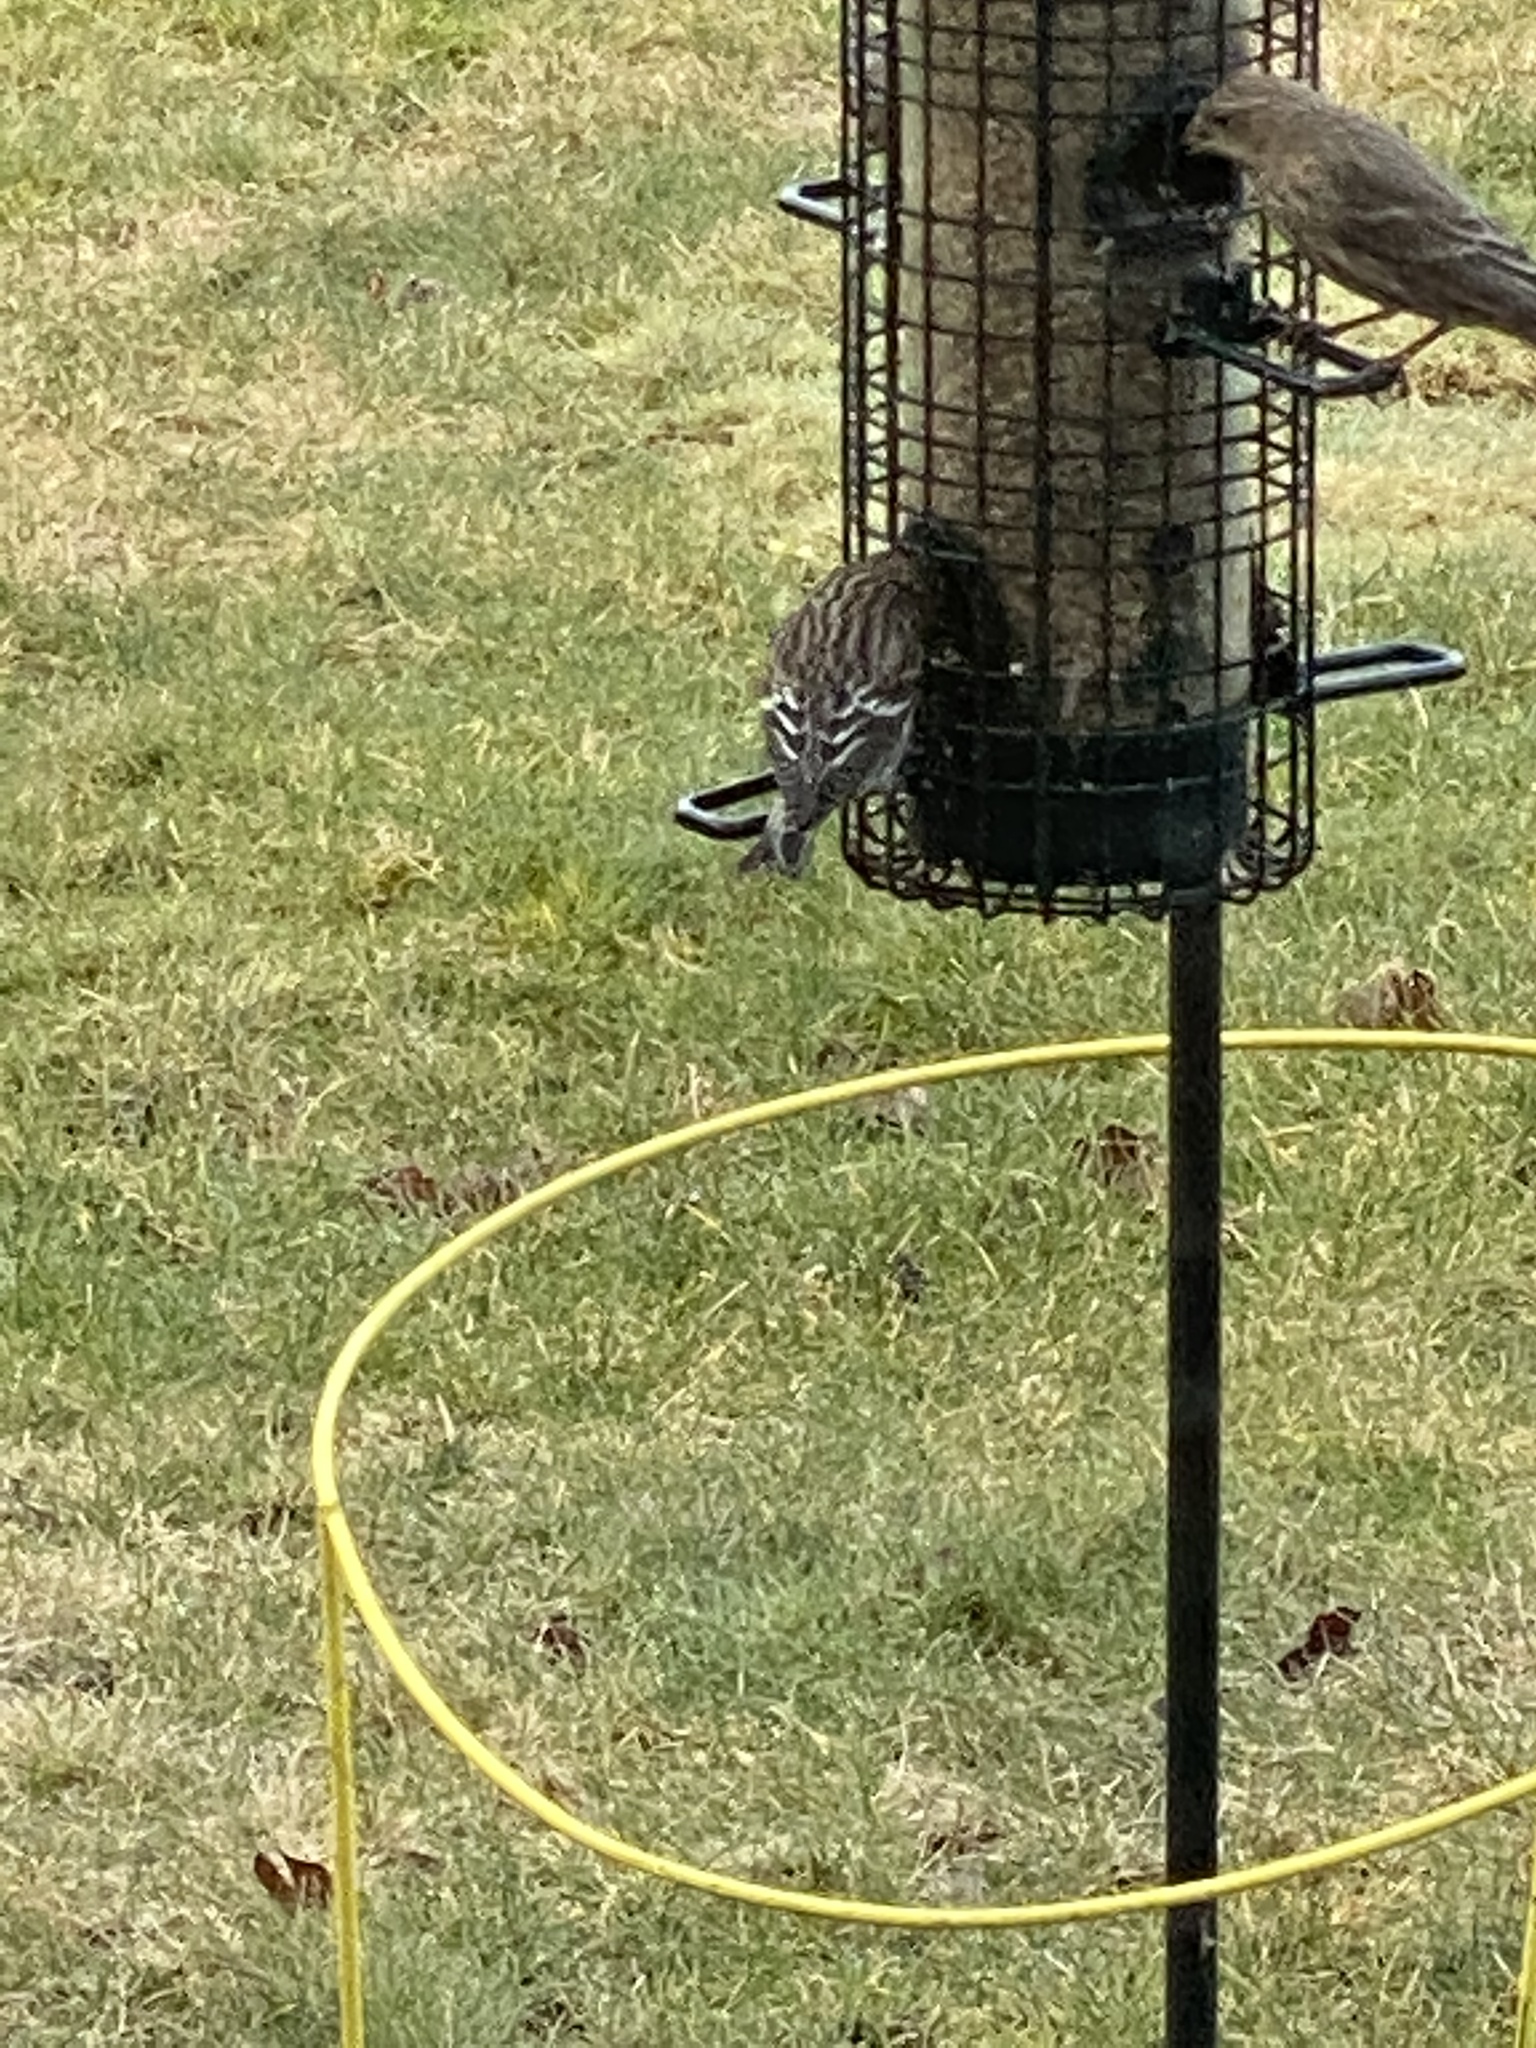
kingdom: Animalia
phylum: Chordata
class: Aves
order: Passeriformes
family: Fringillidae
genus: Spinus
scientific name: Spinus pinus
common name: Pine siskin
